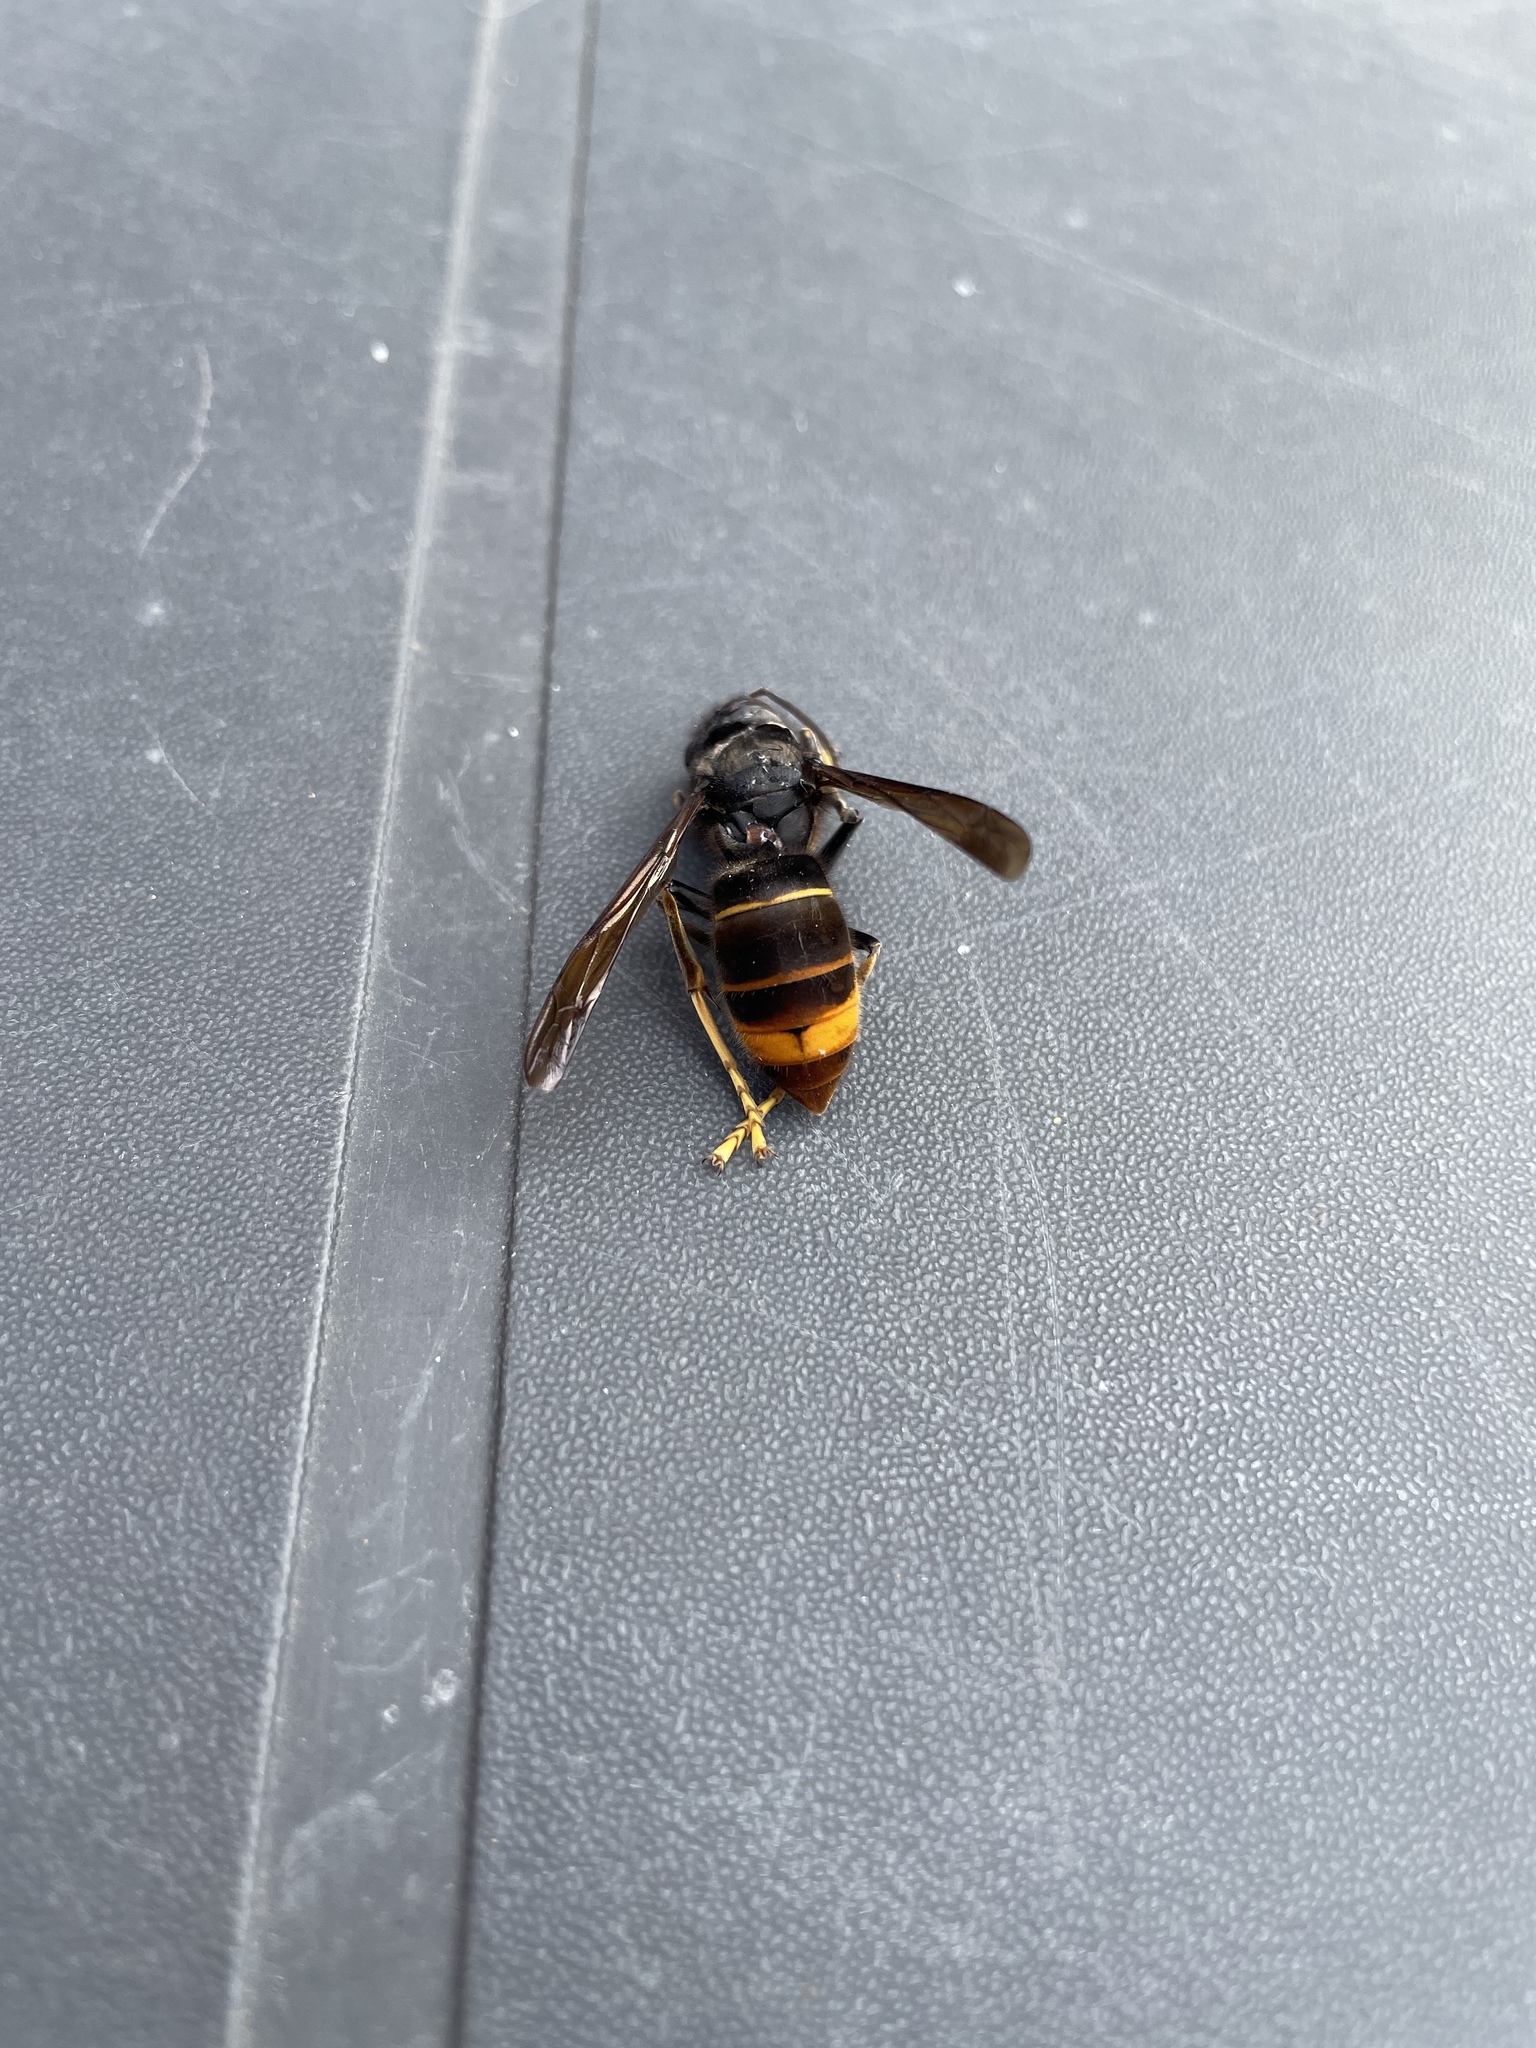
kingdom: Animalia
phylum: Arthropoda
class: Insecta
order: Hymenoptera
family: Vespidae
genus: Vespa
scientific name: Vespa velutina
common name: Asian hornet
